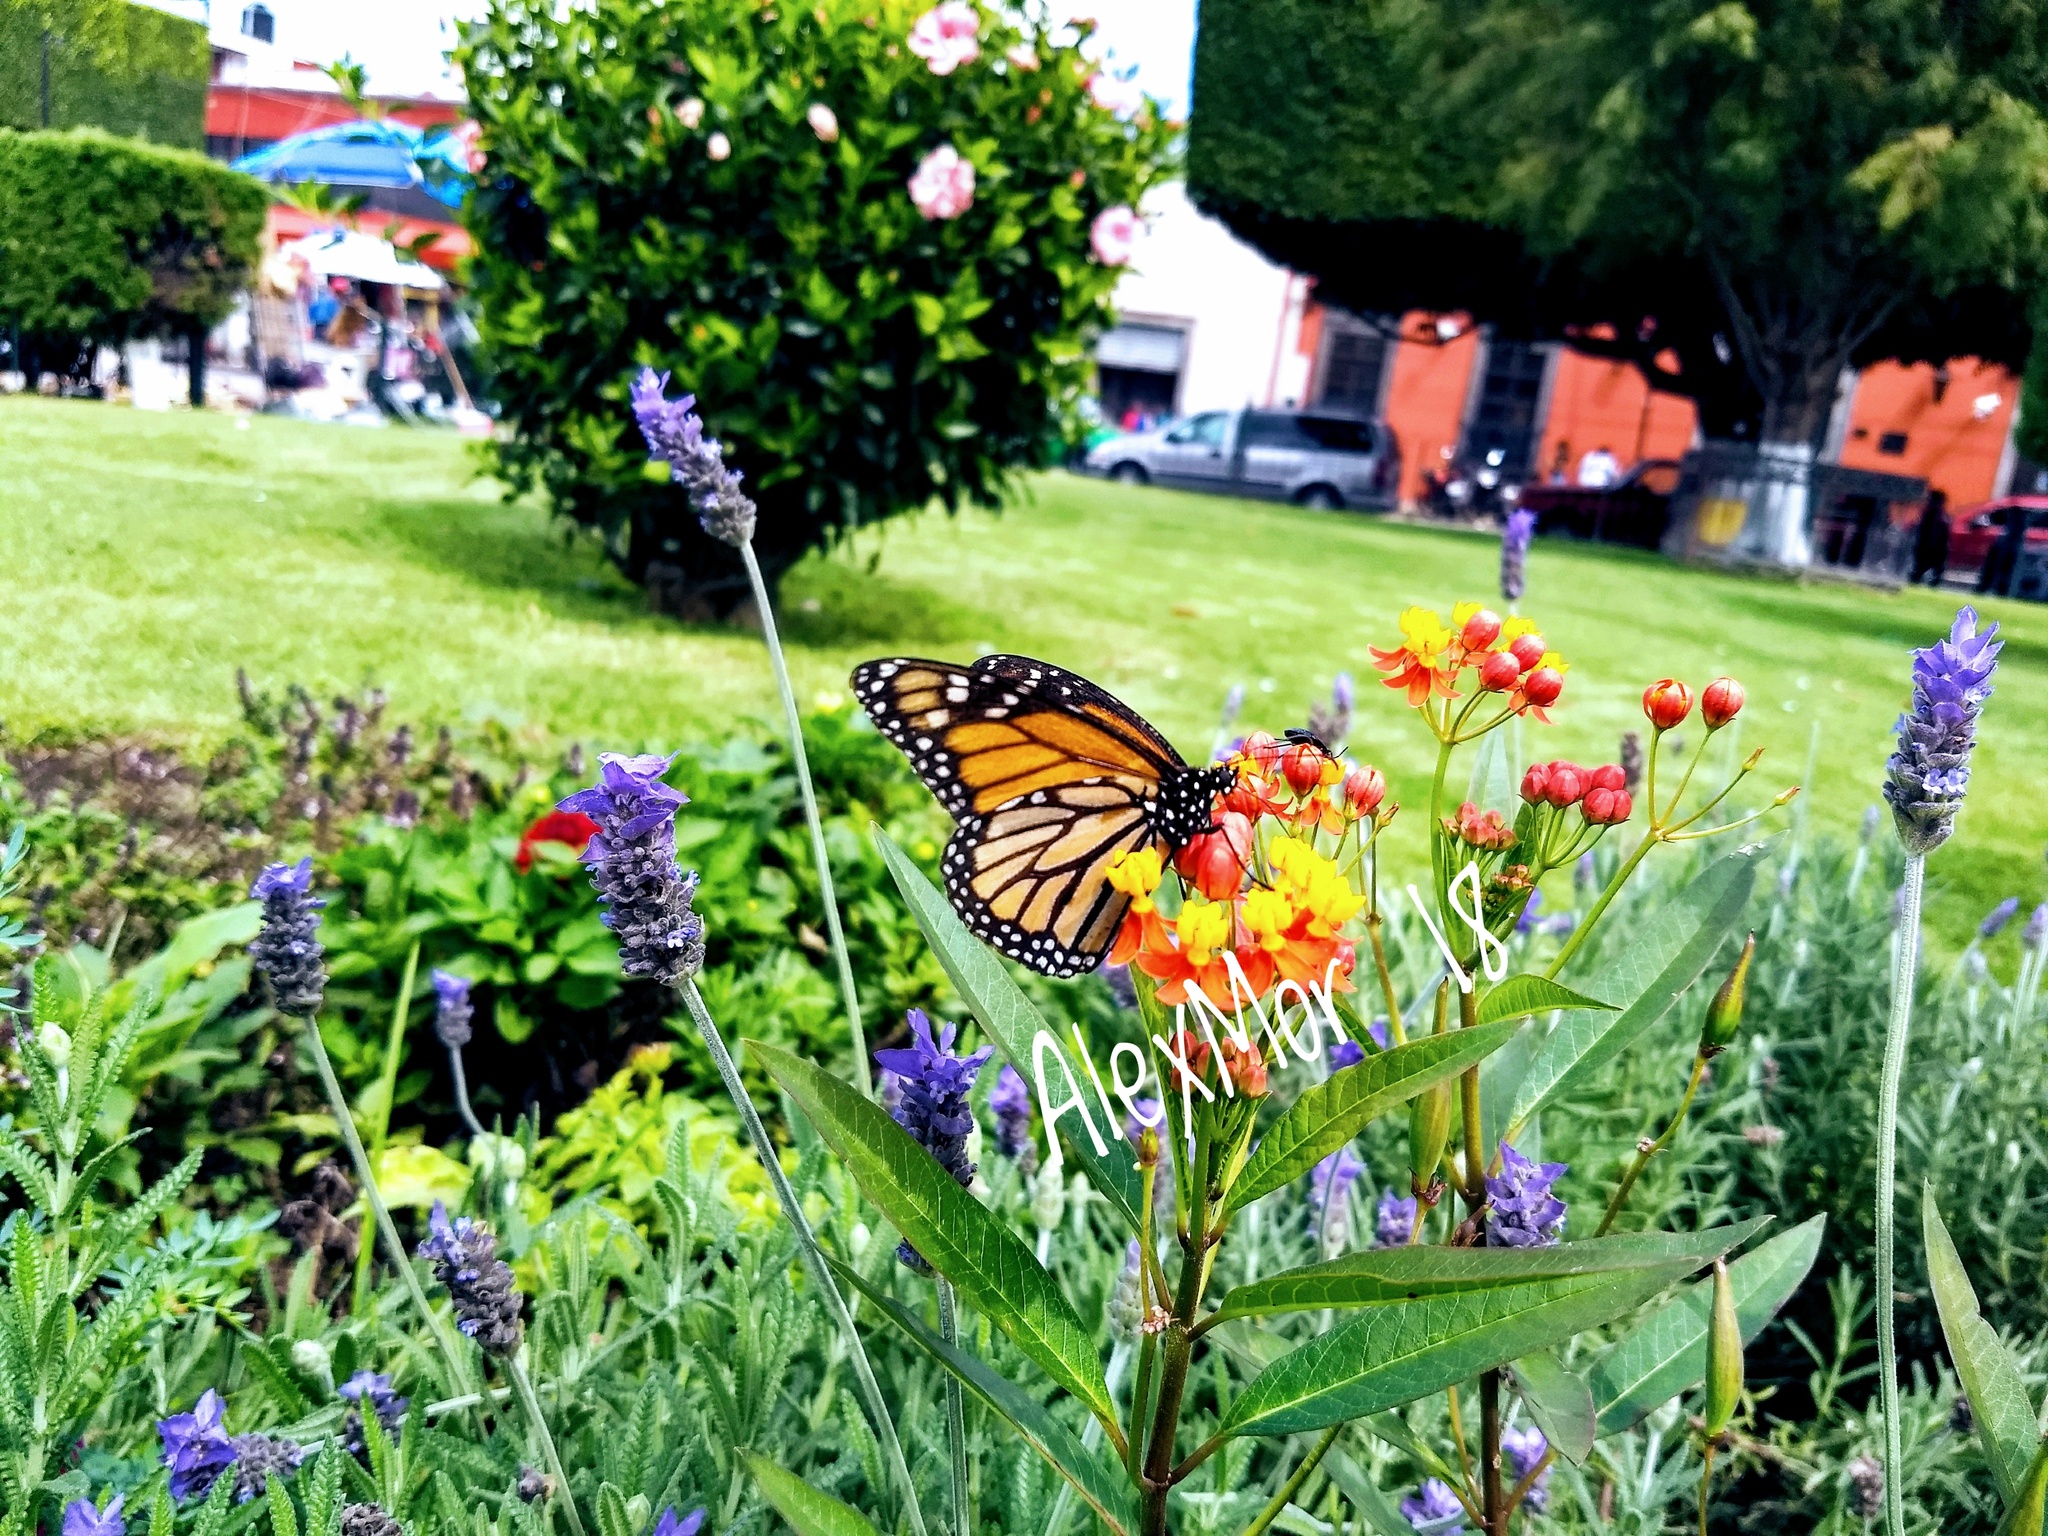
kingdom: Animalia
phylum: Arthropoda
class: Insecta
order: Lepidoptera
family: Nymphalidae
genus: Danaus
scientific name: Danaus plexippus
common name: Monarch
